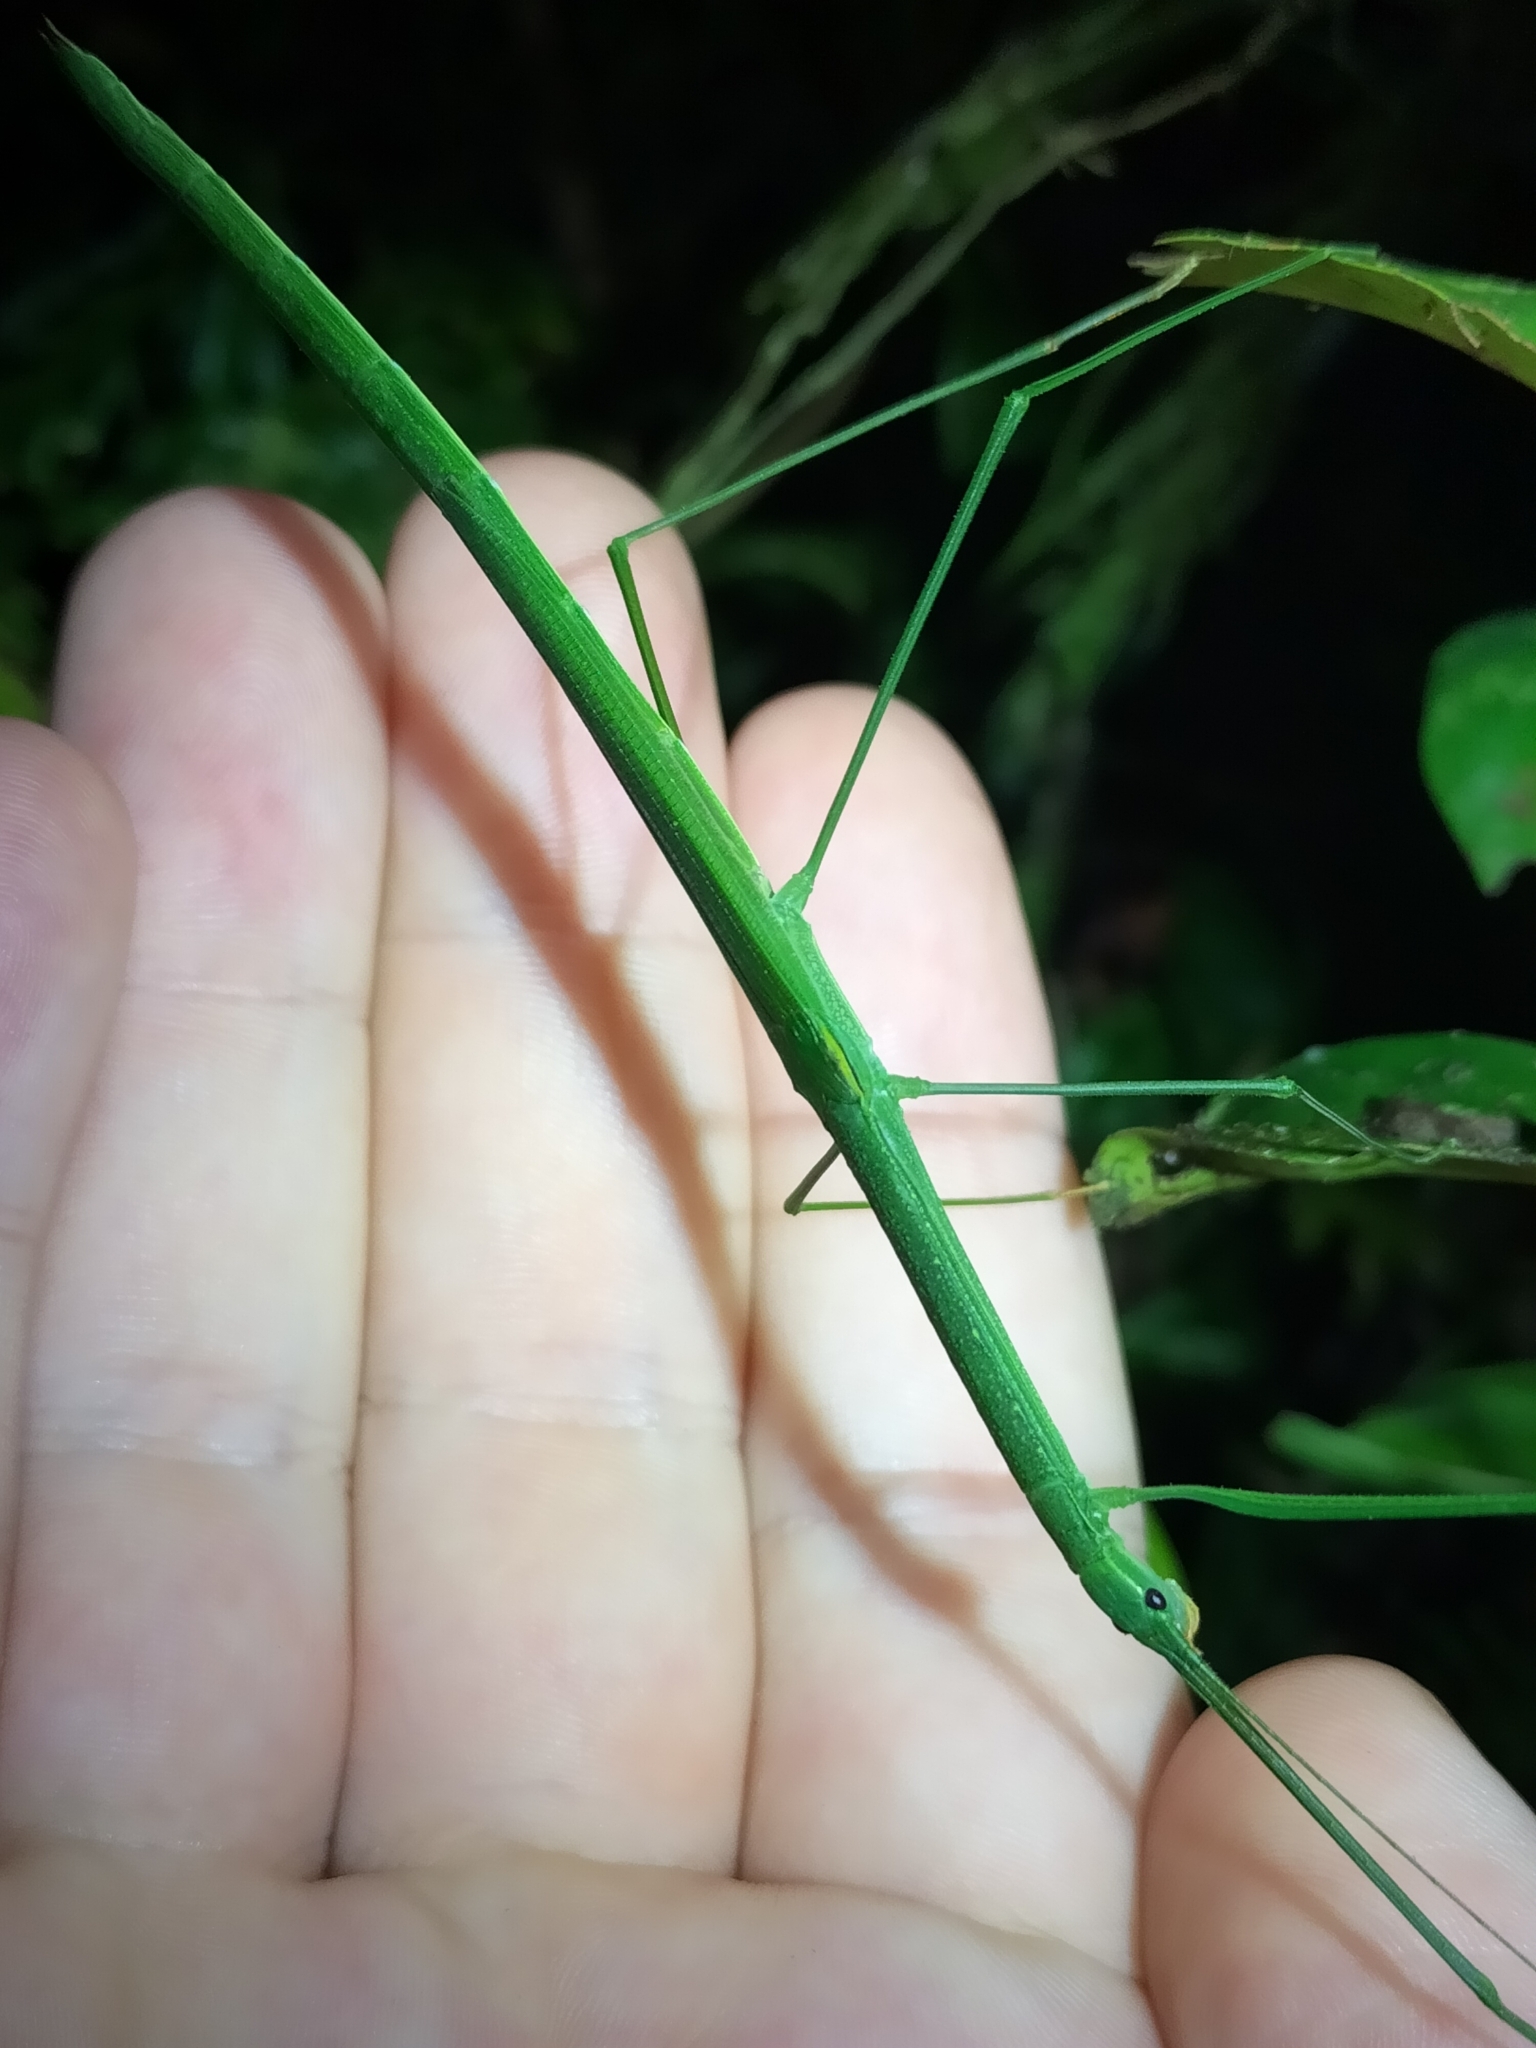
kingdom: Animalia
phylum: Arthropoda
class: Insecta
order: Phasmida
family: Lonchodidae
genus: Sipyloidea
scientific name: Sipyloidea garradungensis
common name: Garradunga green-winged stick-insect
